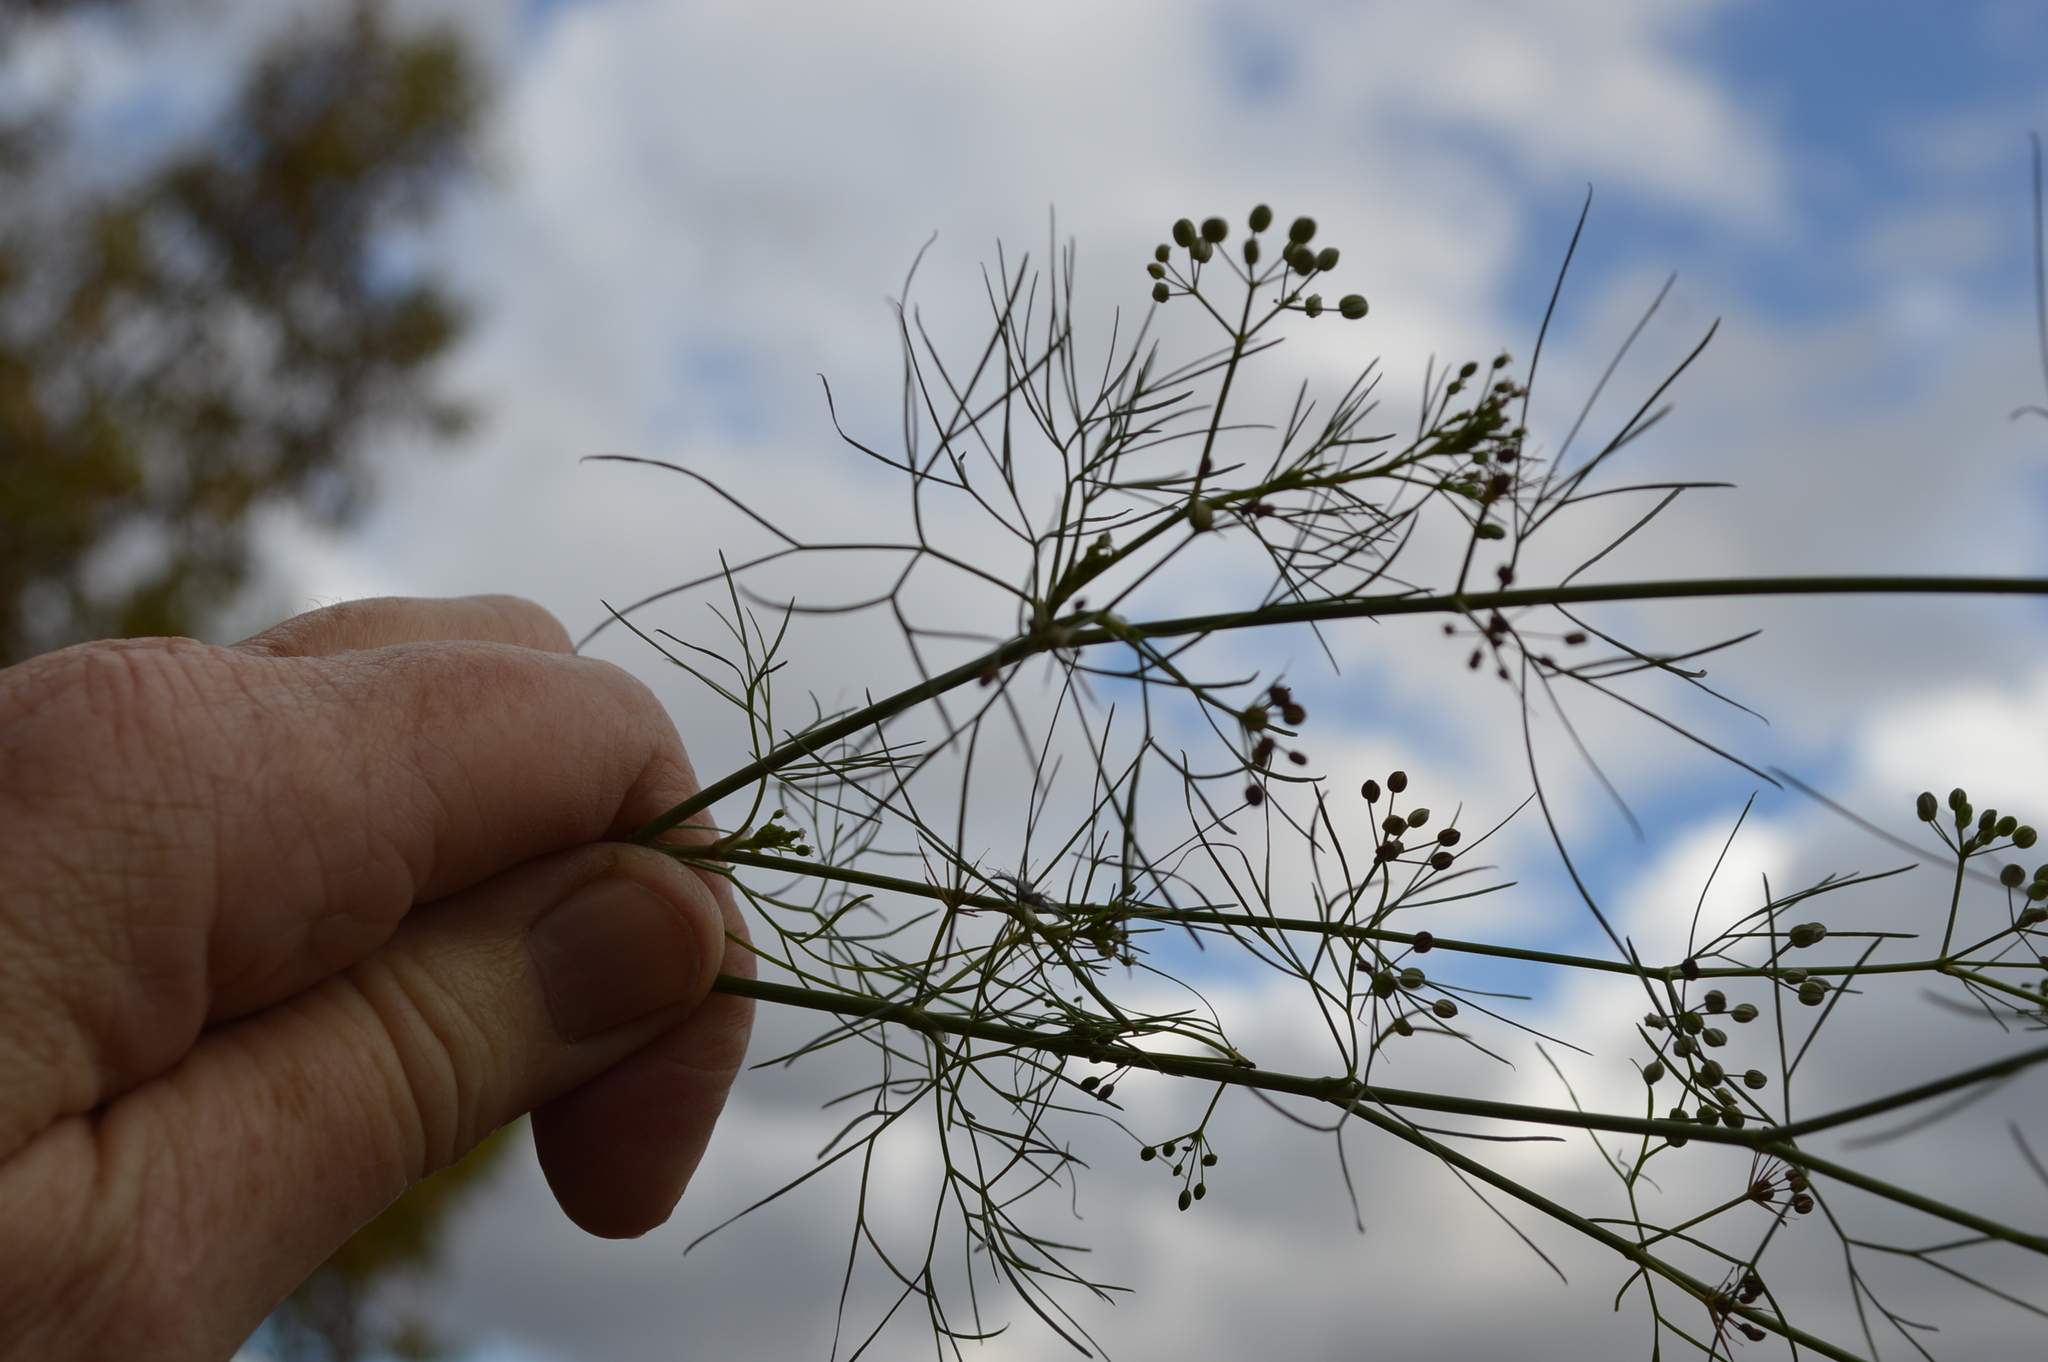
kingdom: Plantae
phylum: Tracheophyta
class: Magnoliopsida
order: Apiales
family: Apiaceae
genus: Cyclospermum
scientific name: Cyclospermum leptophyllum
